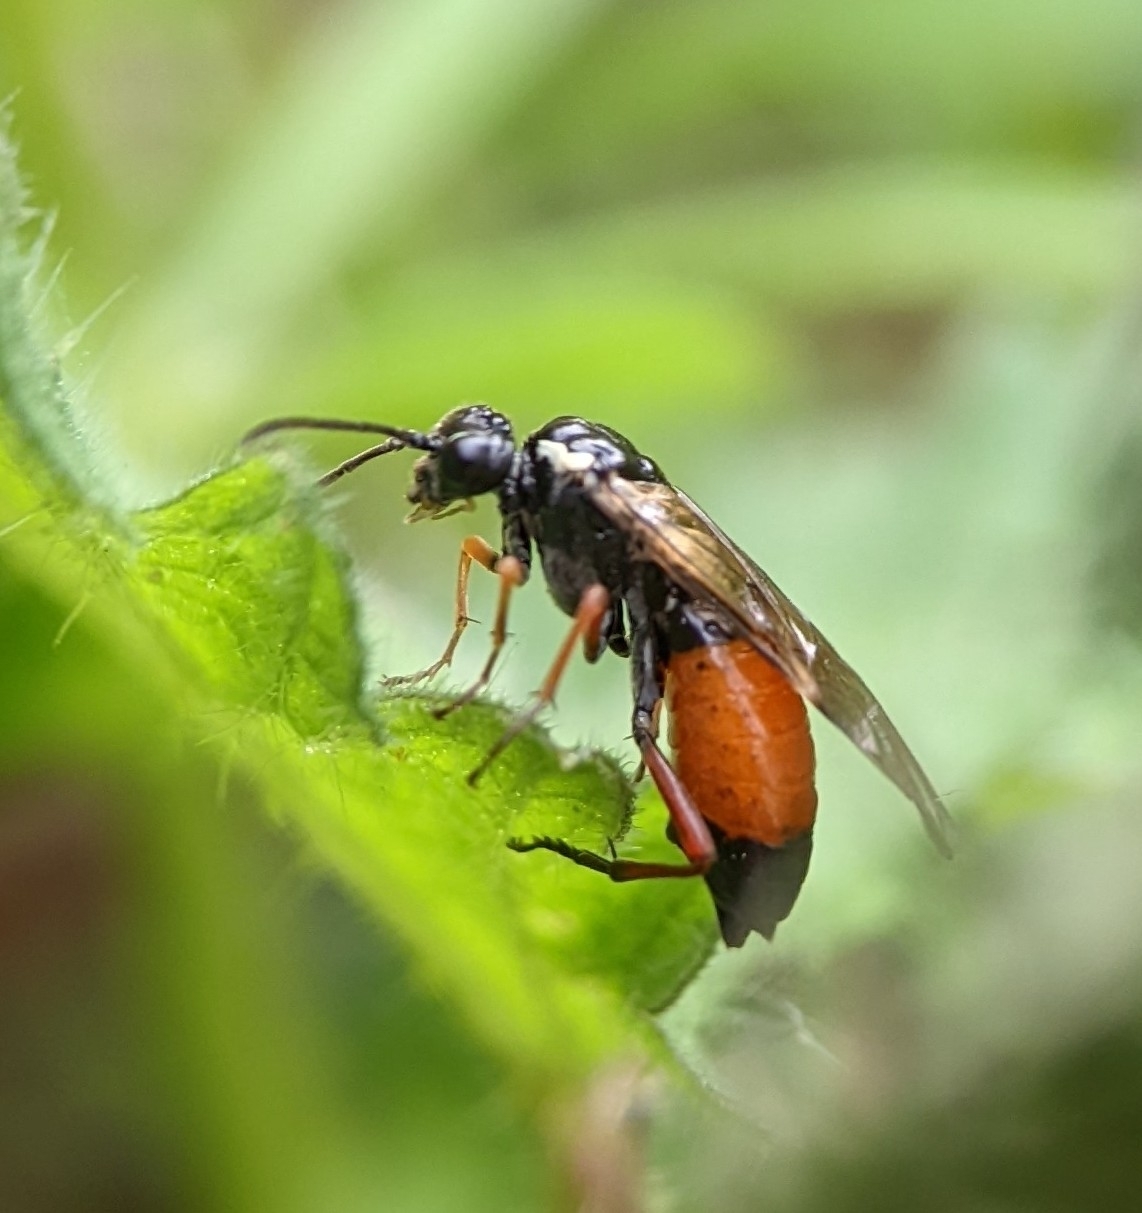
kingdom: Animalia
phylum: Arthropoda
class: Insecta
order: Hymenoptera
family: Tenthredinidae
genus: Aglaostigma
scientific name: Aglaostigma aucupariae
